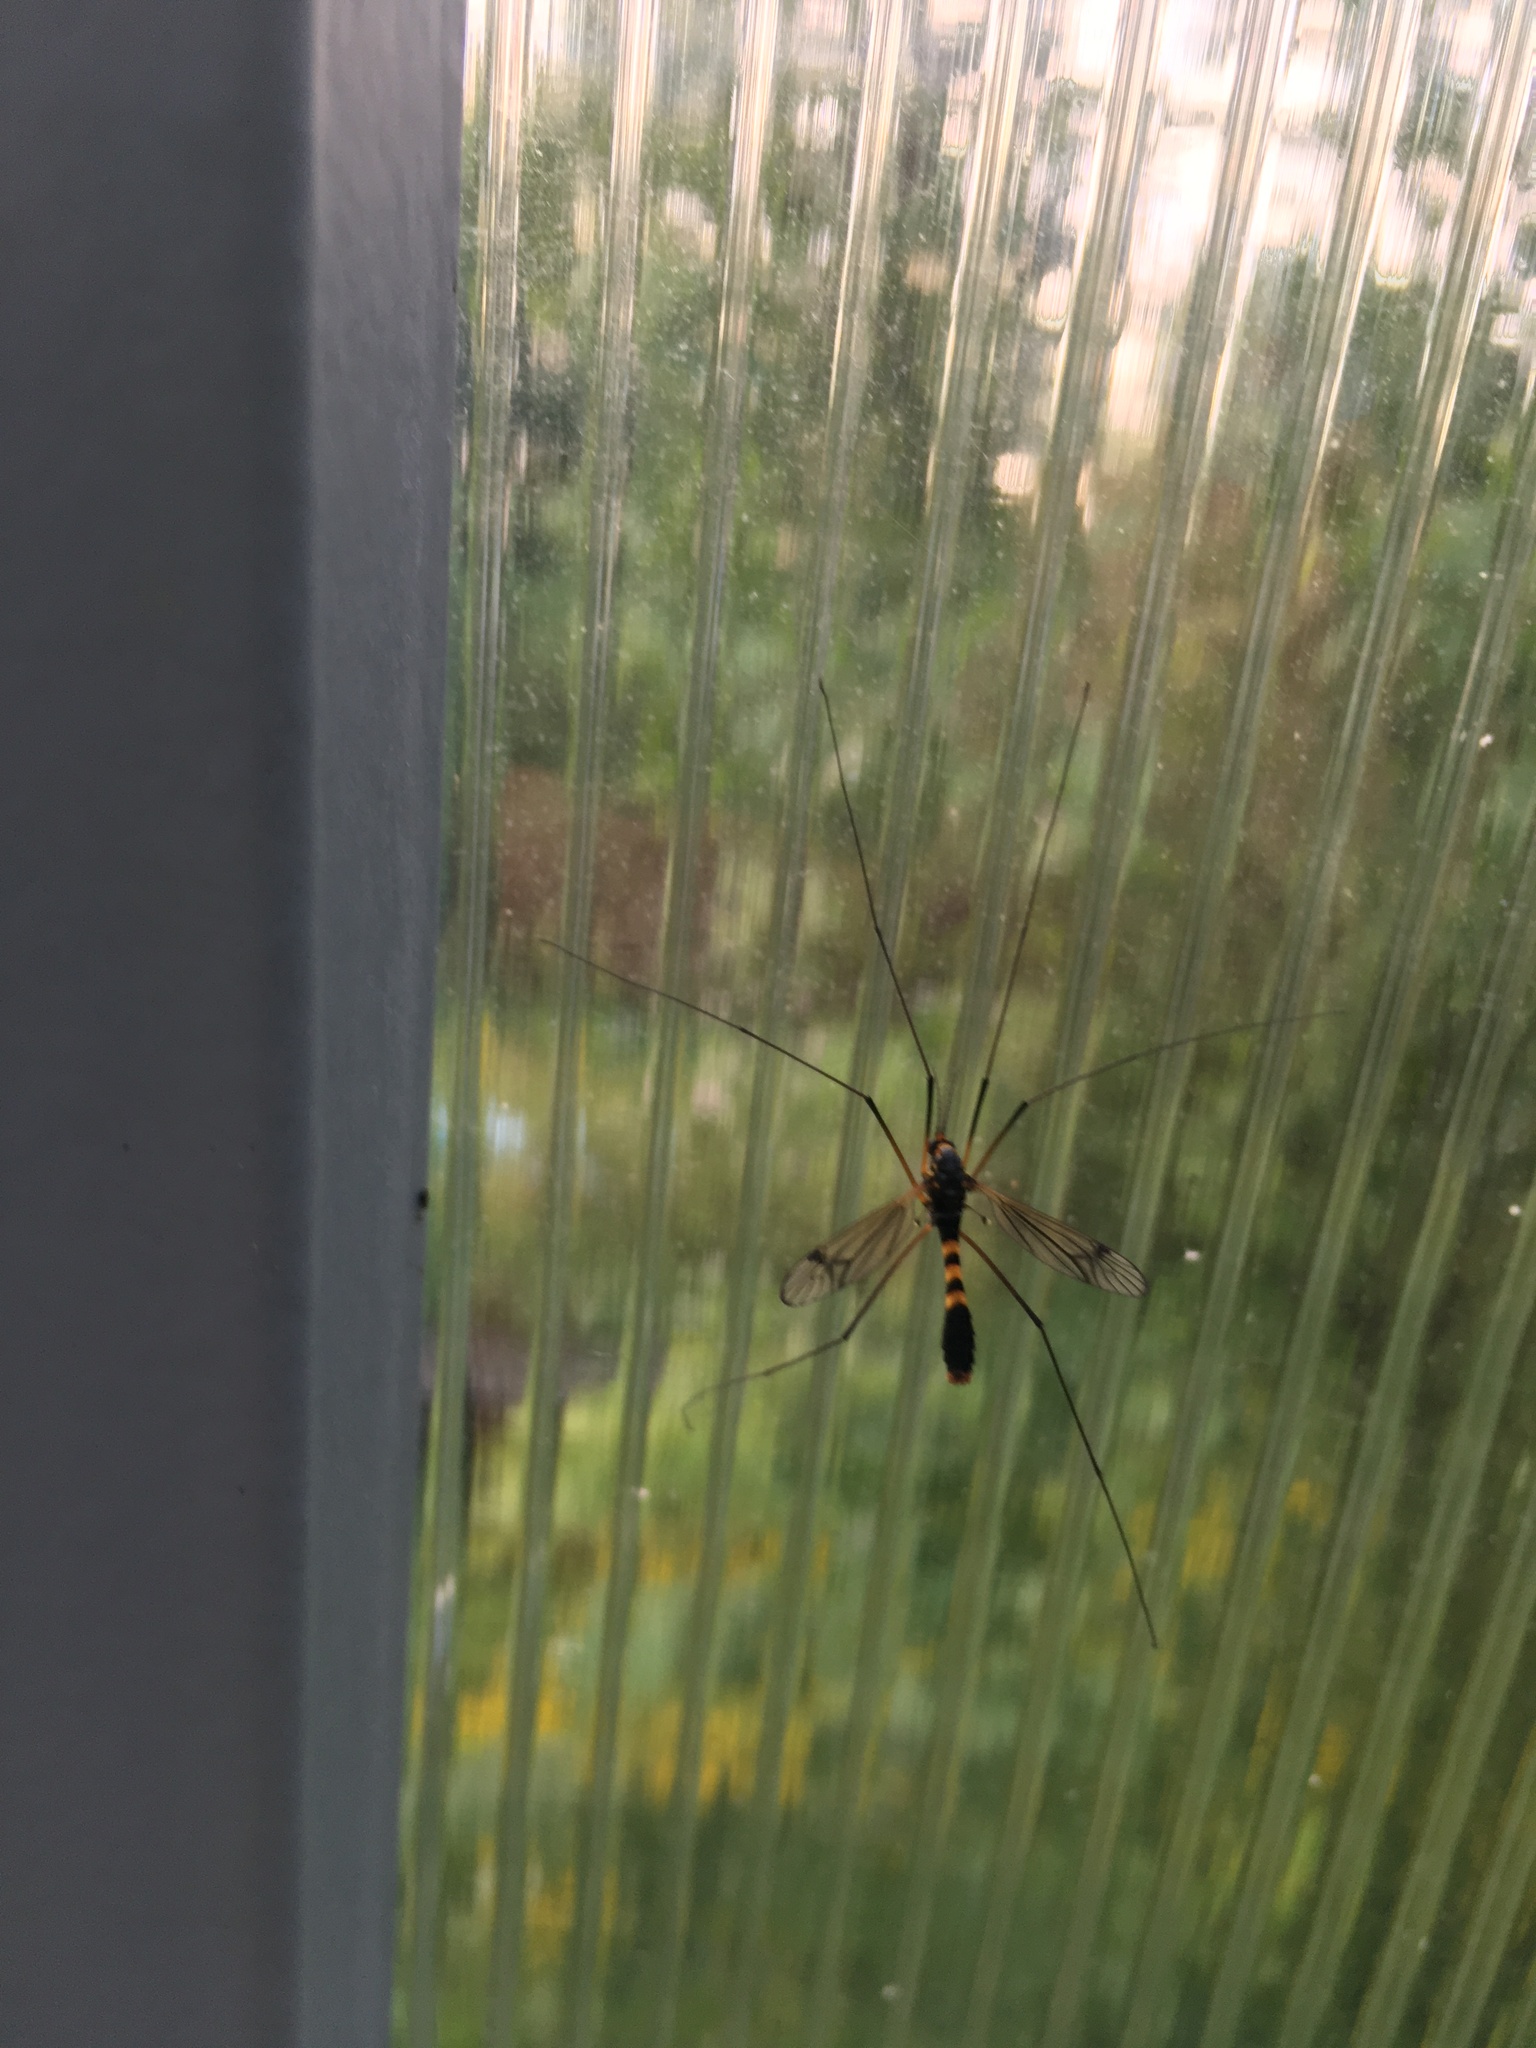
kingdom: Animalia
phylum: Arthropoda
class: Insecta
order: Diptera
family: Tipulidae
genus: Nephrotoma
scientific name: Nephrotoma crocata
